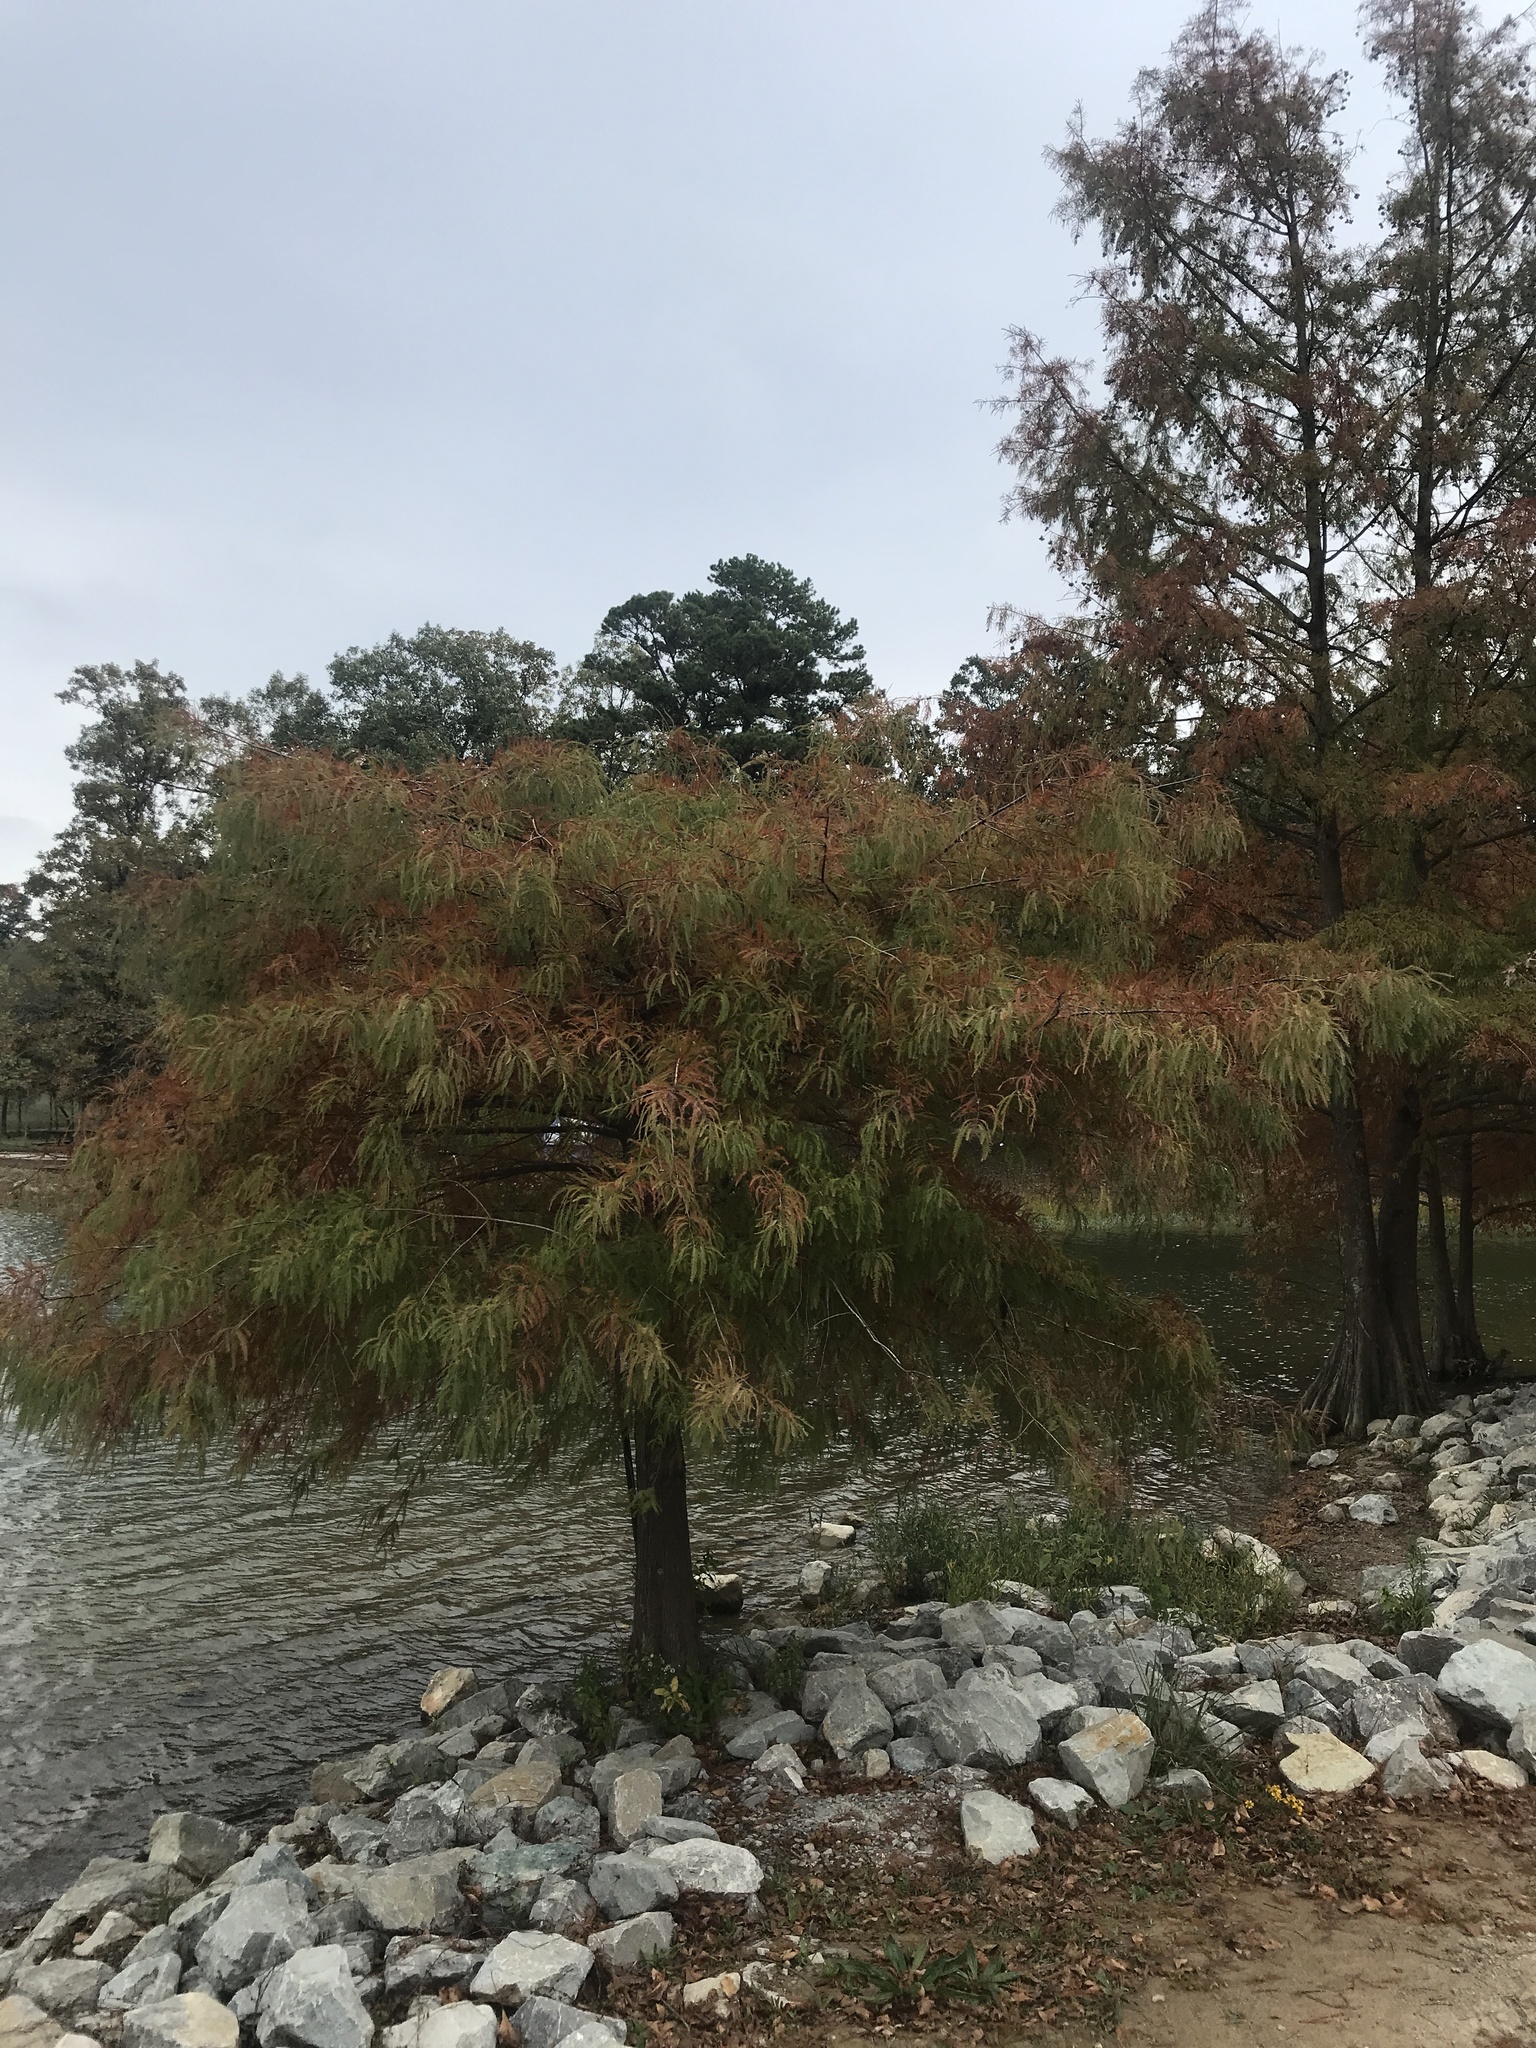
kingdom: Plantae
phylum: Tracheophyta
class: Pinopsida
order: Pinales
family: Cupressaceae
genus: Taxodium
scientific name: Taxodium distichum
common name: Bald cypress
